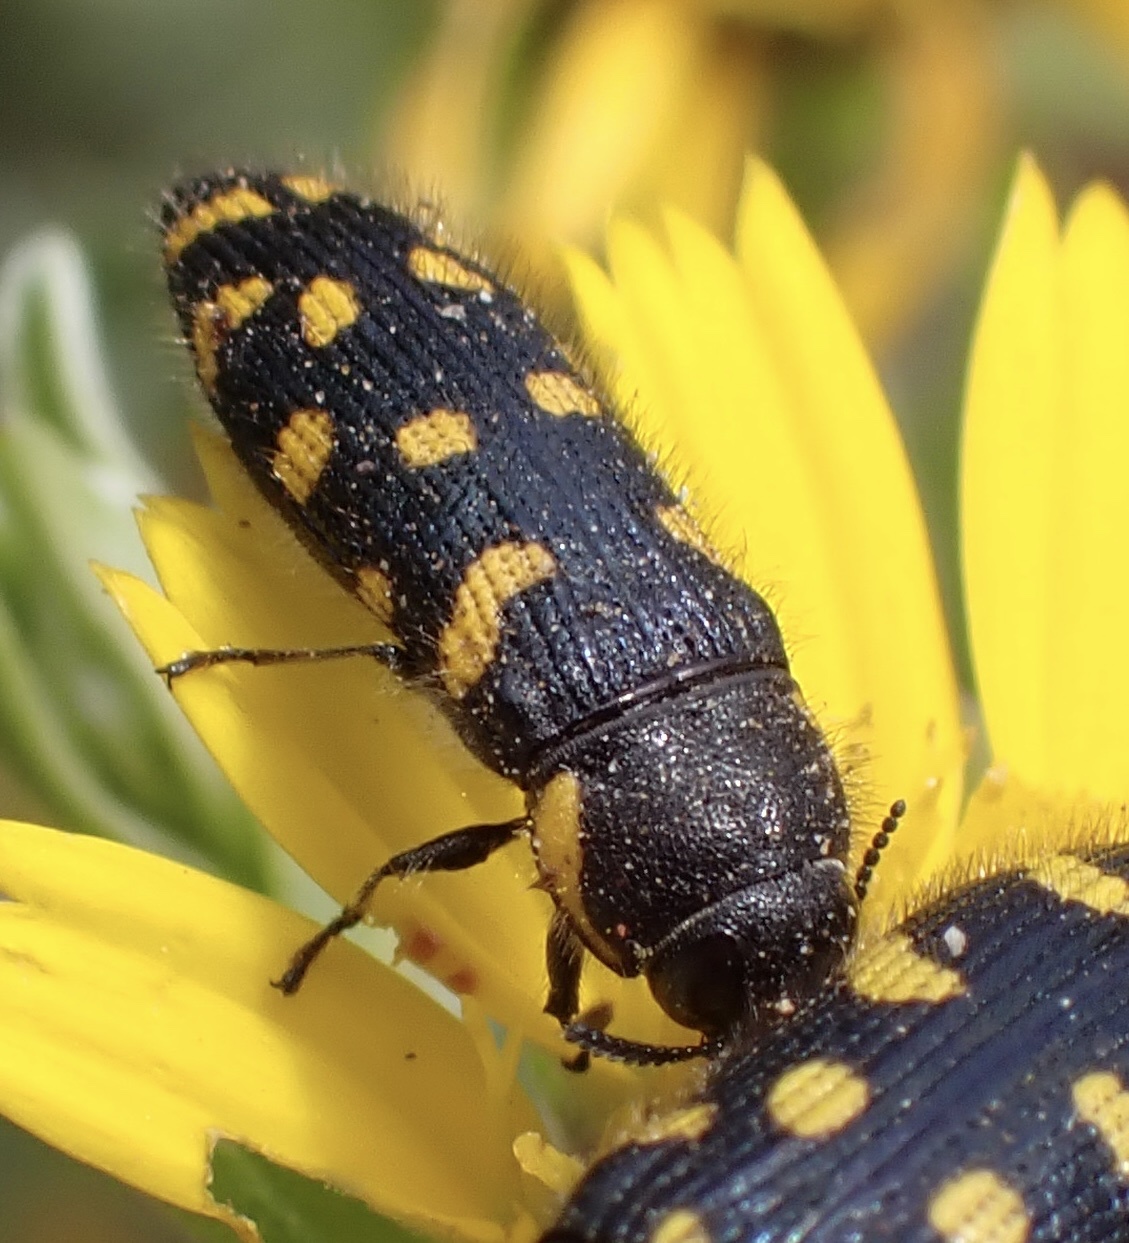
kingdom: Animalia
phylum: Arthropoda
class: Insecta
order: Coleoptera
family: Buprestidae
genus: Acmaeodera
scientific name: Acmaeodera quadrifasciata
